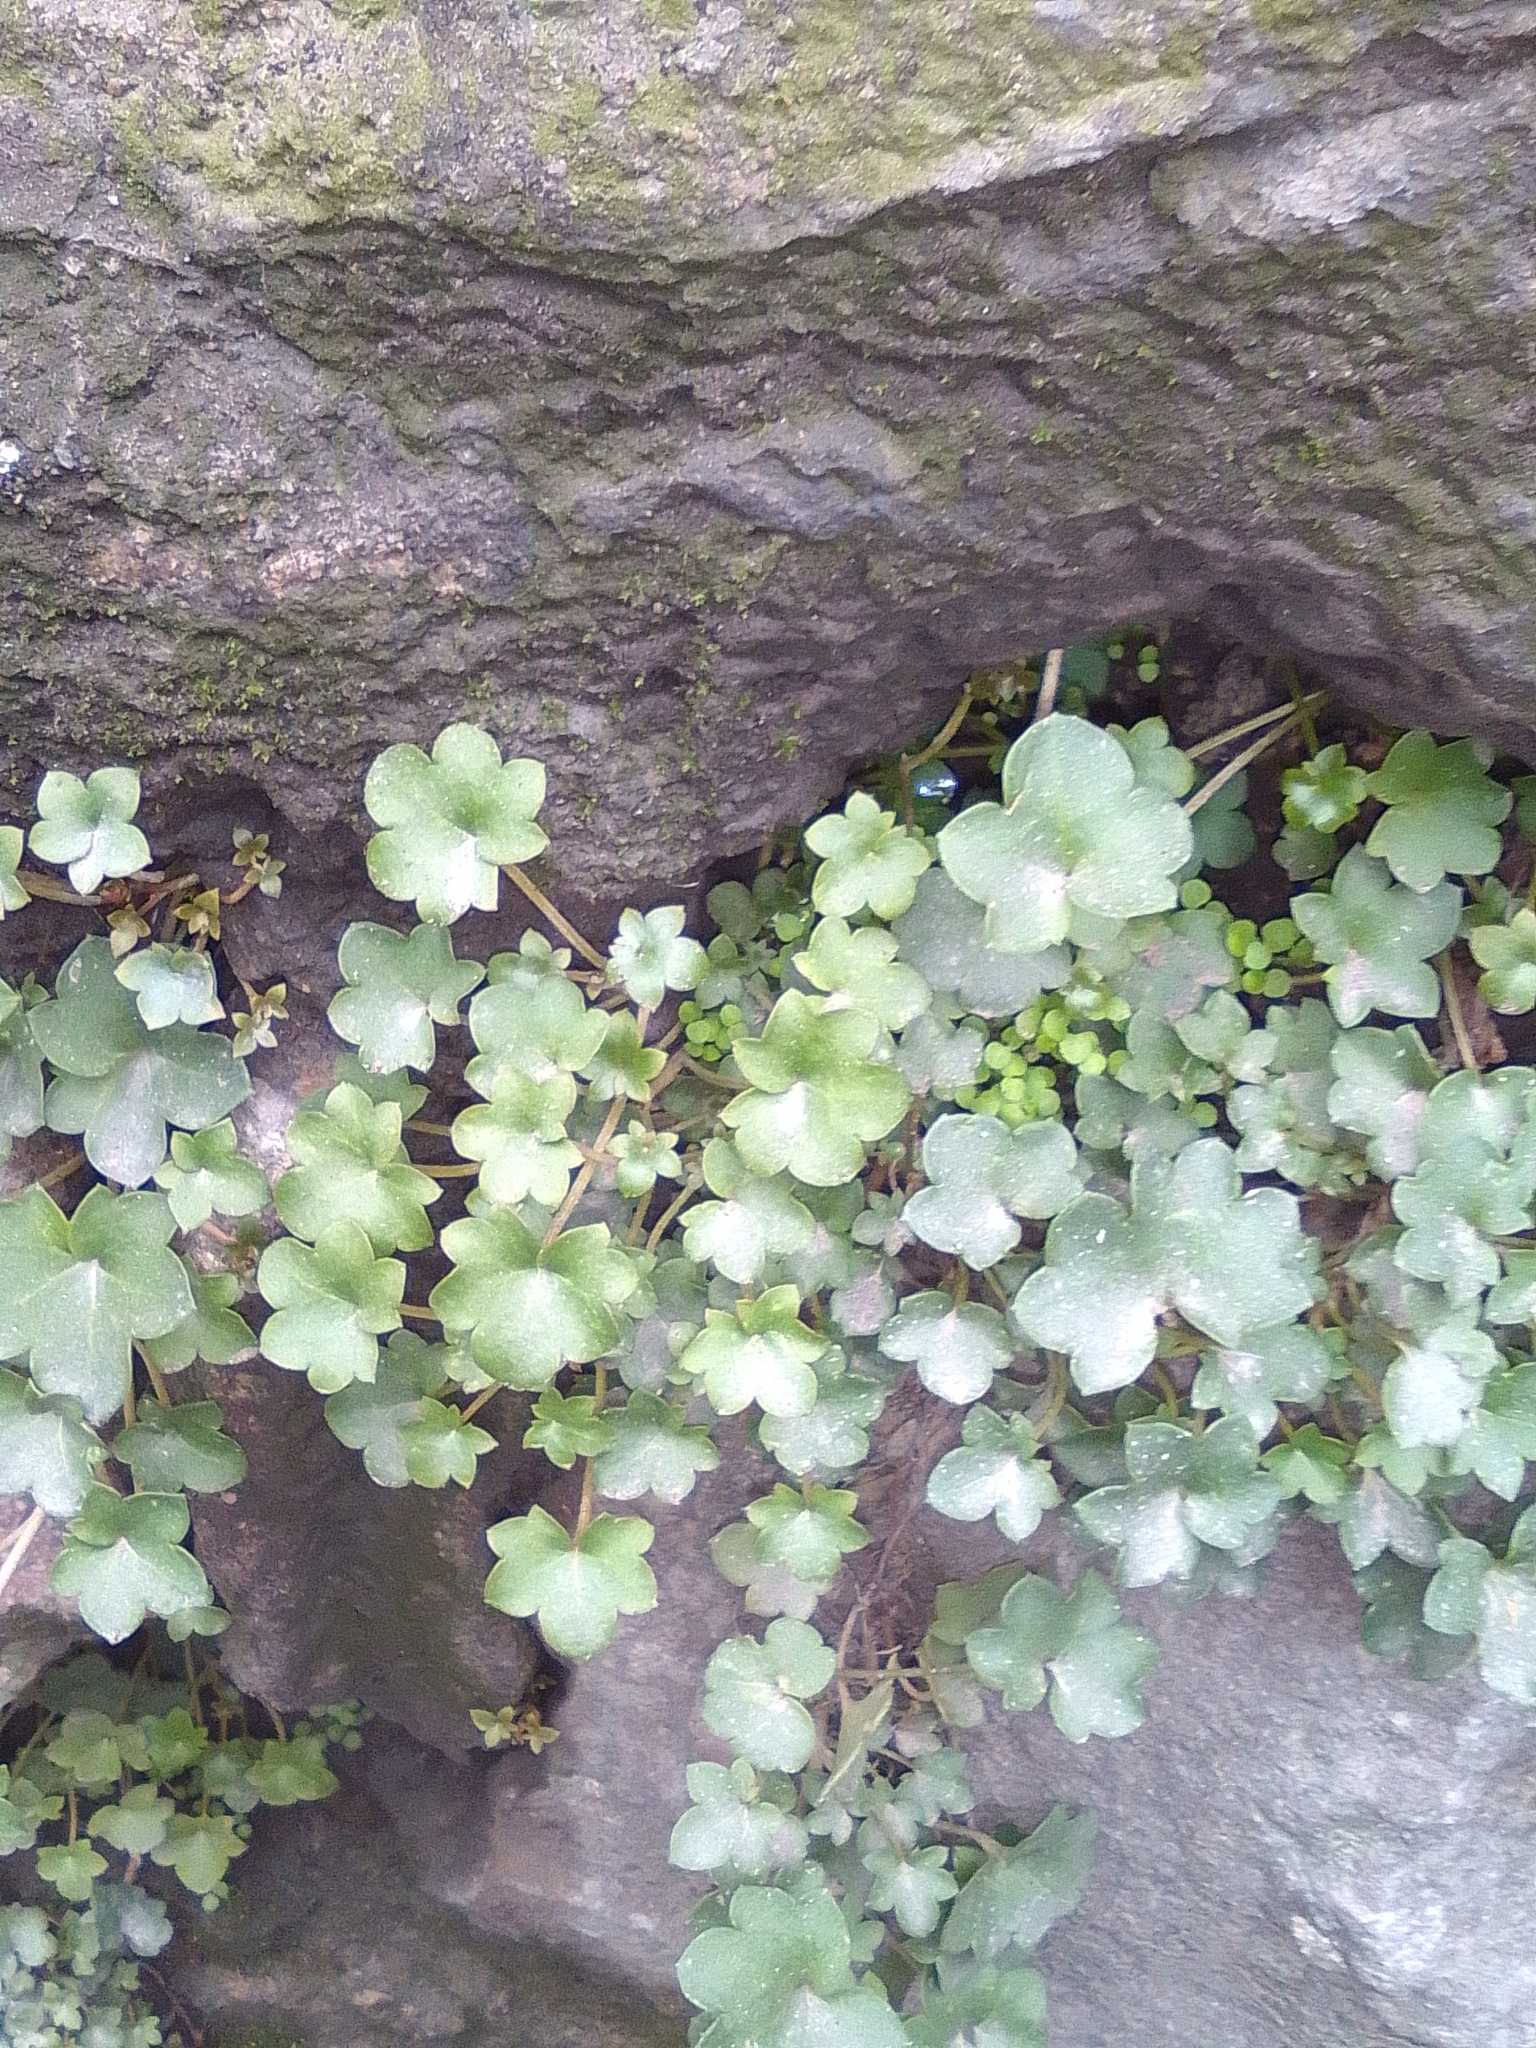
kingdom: Plantae
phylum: Tracheophyta
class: Magnoliopsida
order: Lamiales
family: Plantaginaceae
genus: Cymbalaria
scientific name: Cymbalaria muralis
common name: Ivy-leaved toadflax
